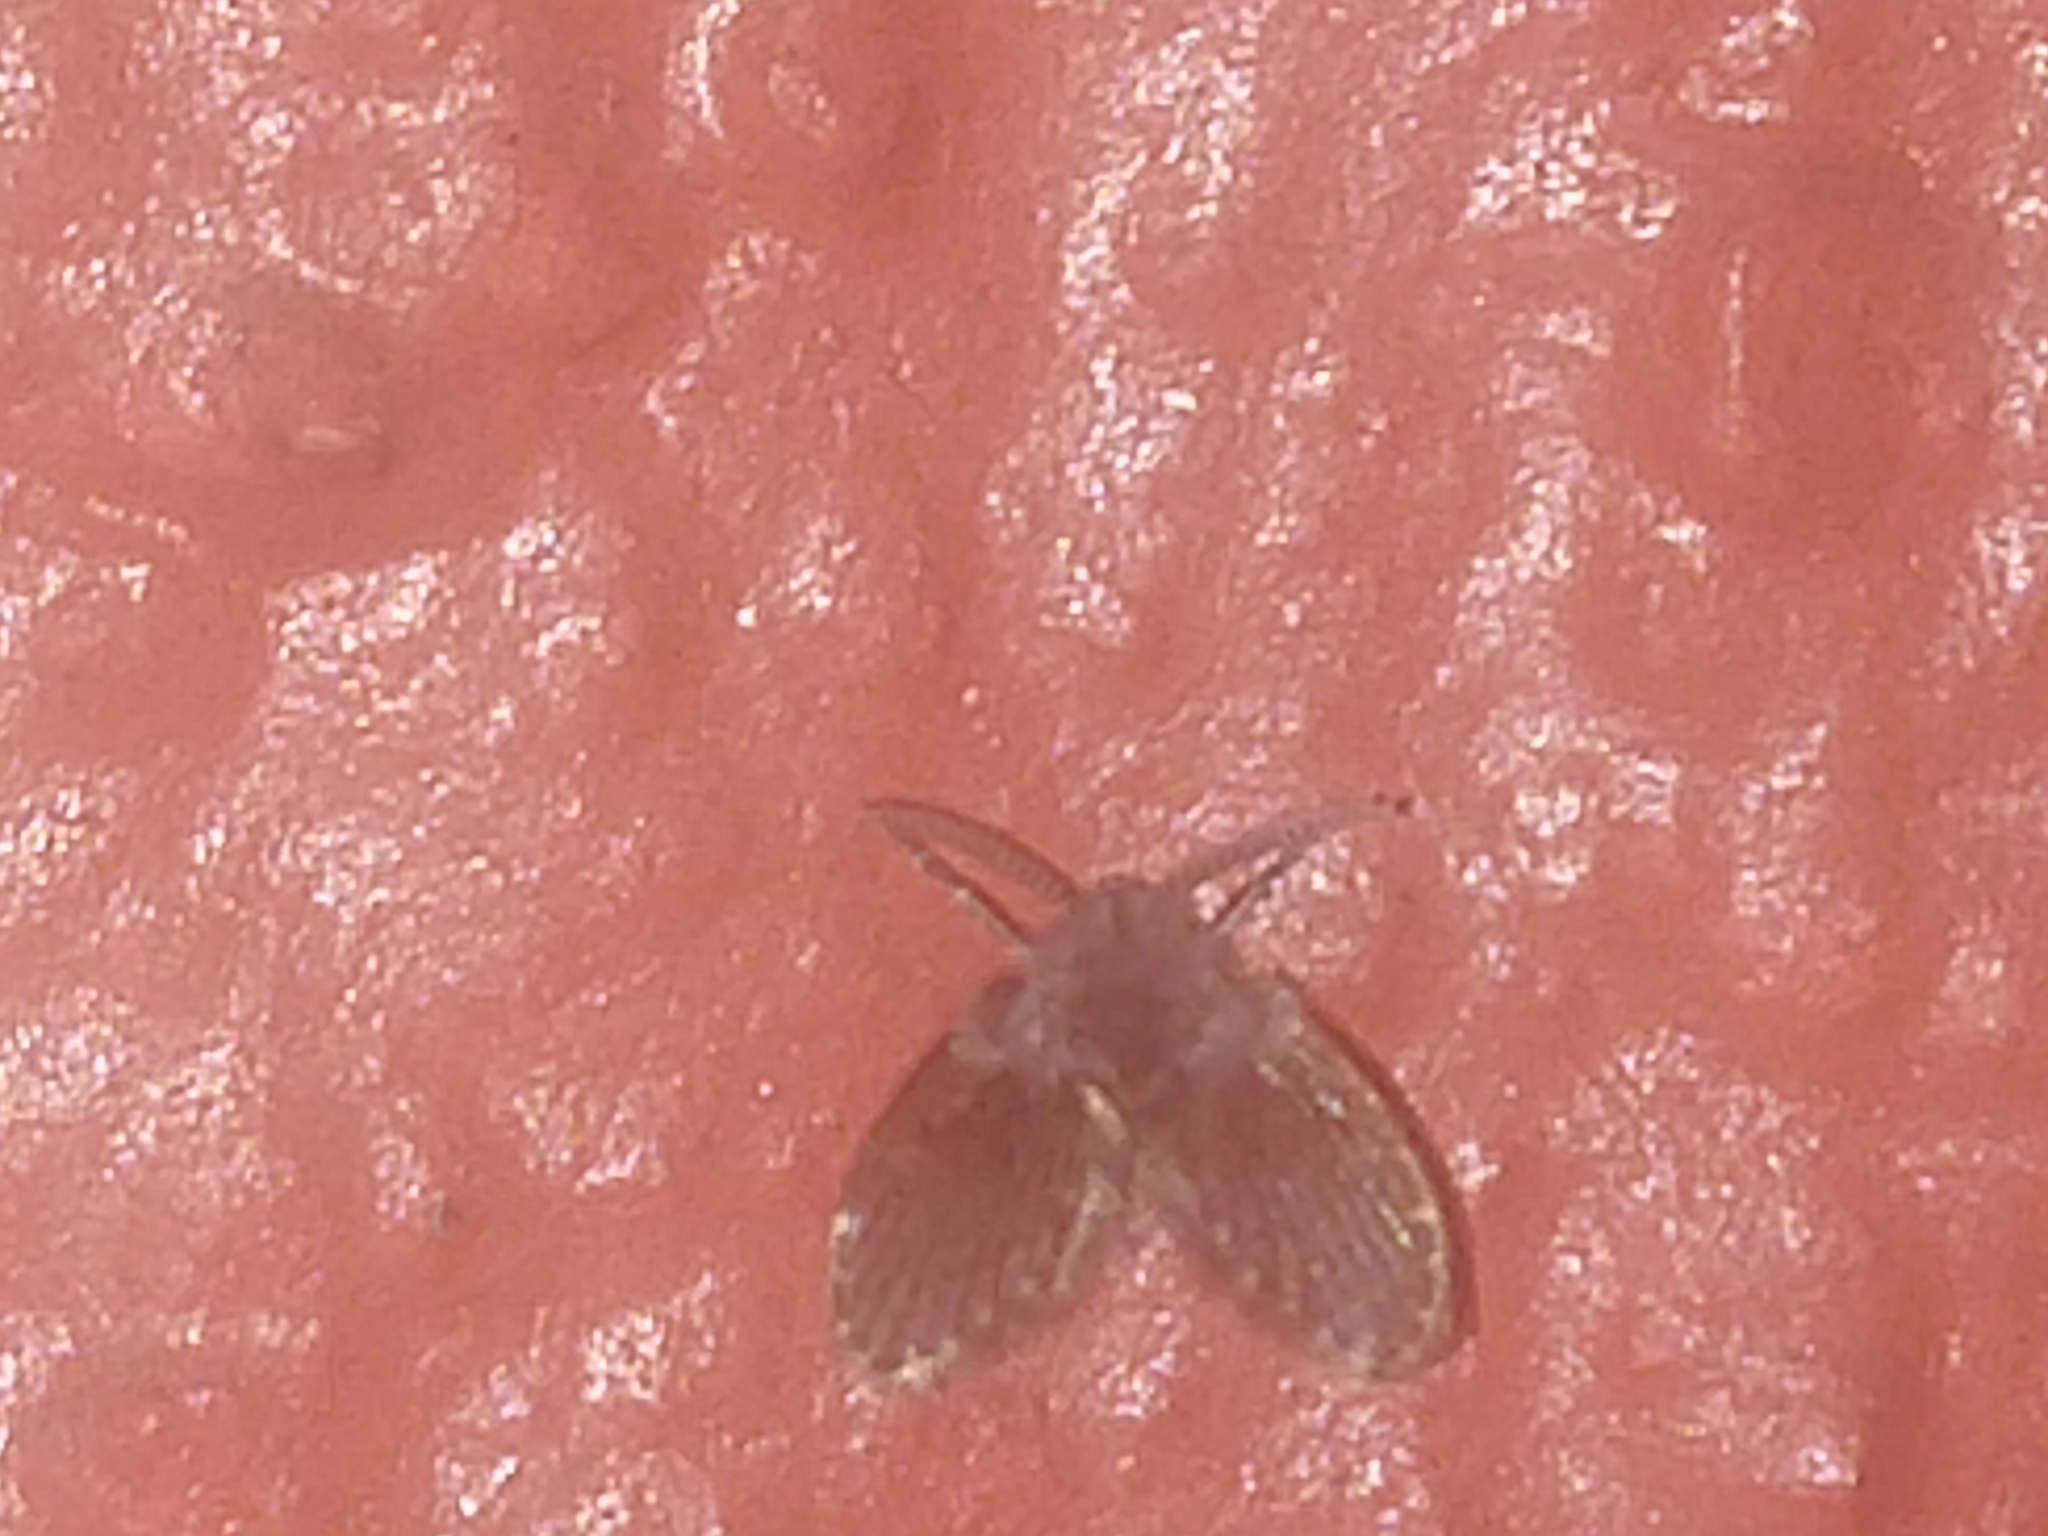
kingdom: Animalia
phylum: Arthropoda
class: Insecta
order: Diptera
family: Psychodidae
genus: Clogmia
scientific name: Clogmia albipunctatus
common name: White-spotted moth fly
